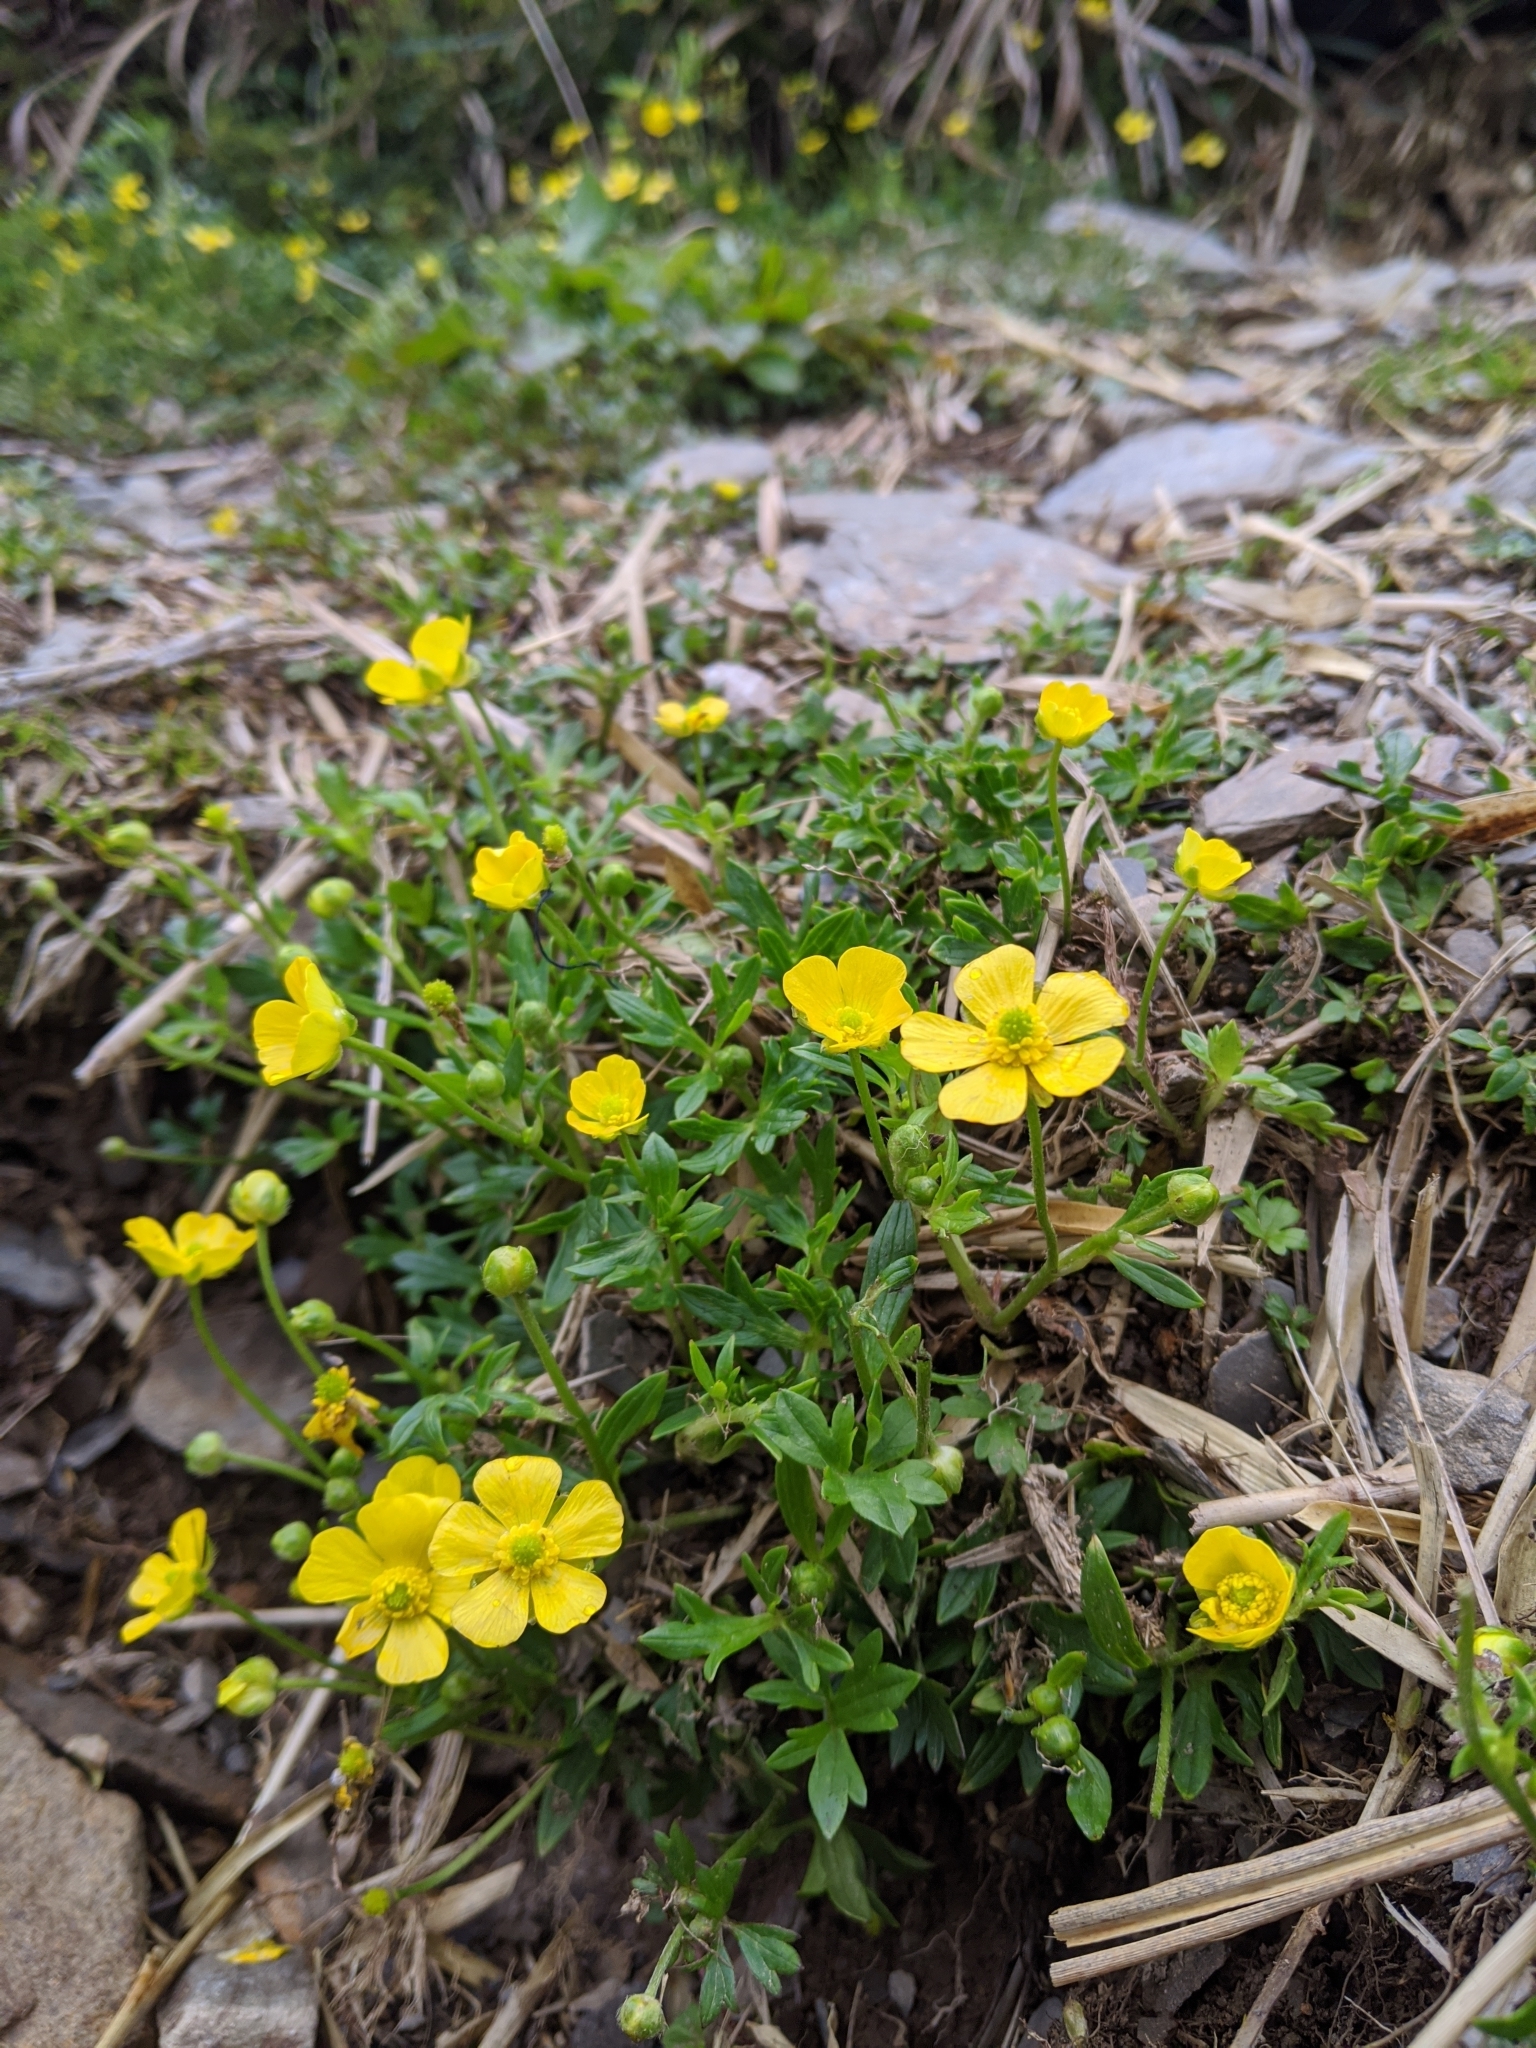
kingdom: Plantae
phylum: Tracheophyta
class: Magnoliopsida
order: Ranunculales
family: Ranunculaceae
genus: Ranunculus
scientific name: Ranunculus formosa-montanus
